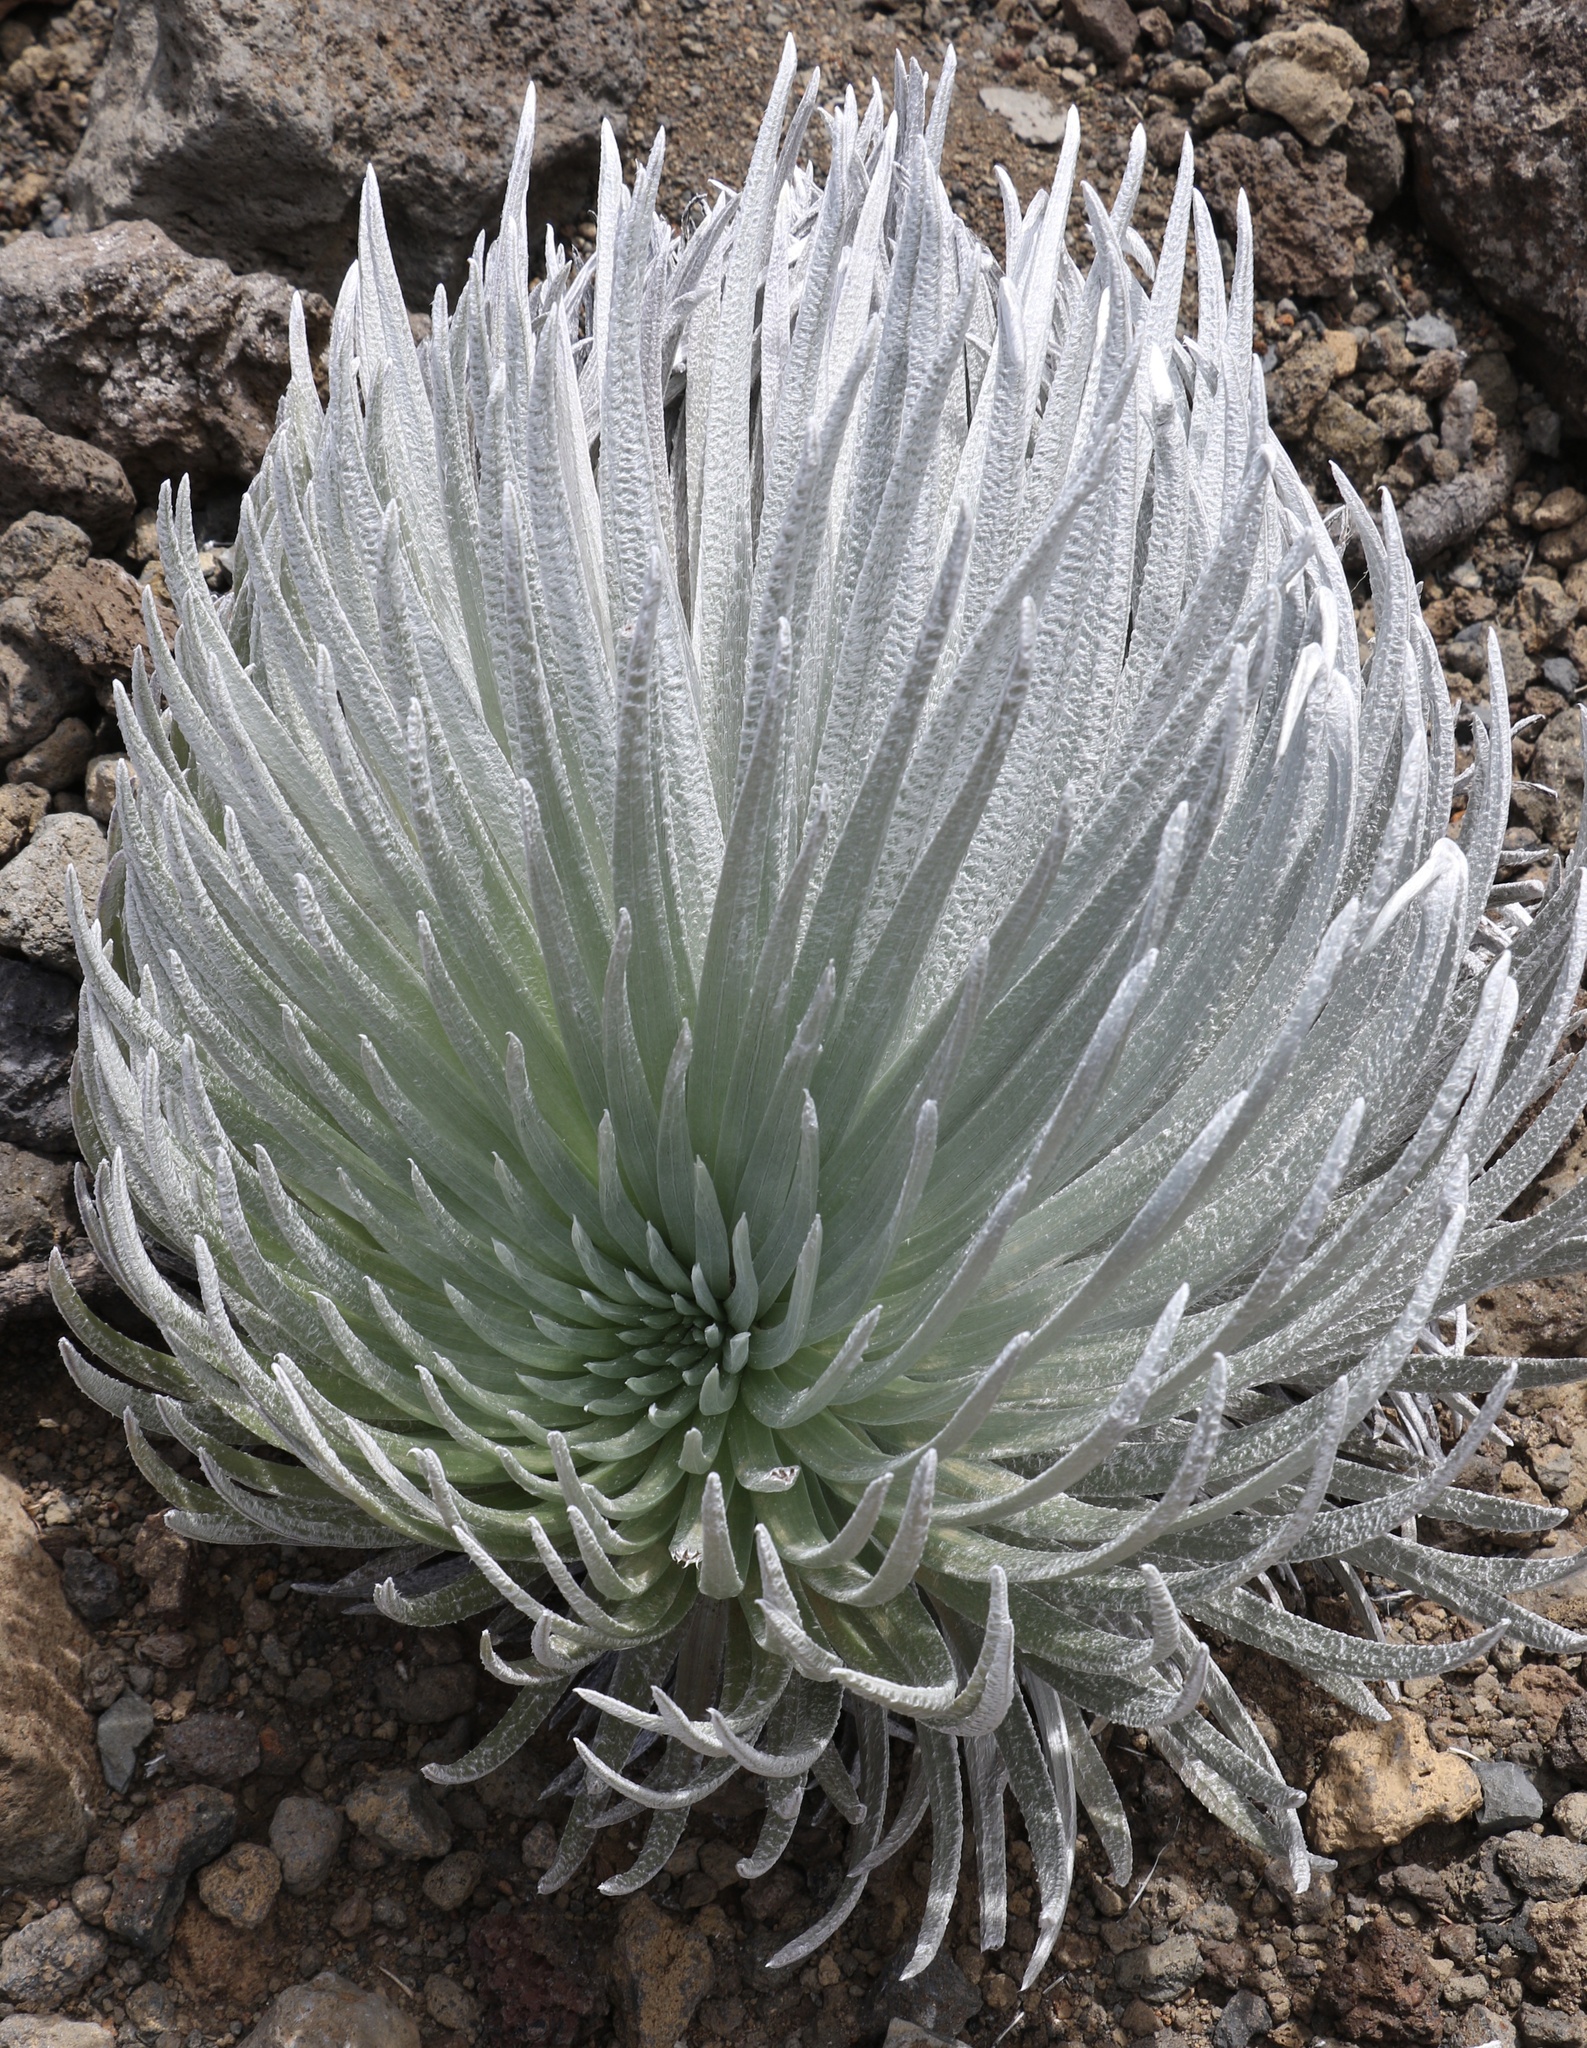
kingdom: Plantae
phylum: Tracheophyta
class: Magnoliopsida
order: Asterales
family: Asteraceae
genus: Argyroxiphium
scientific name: Argyroxiphium sandwicense
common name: Silversword
